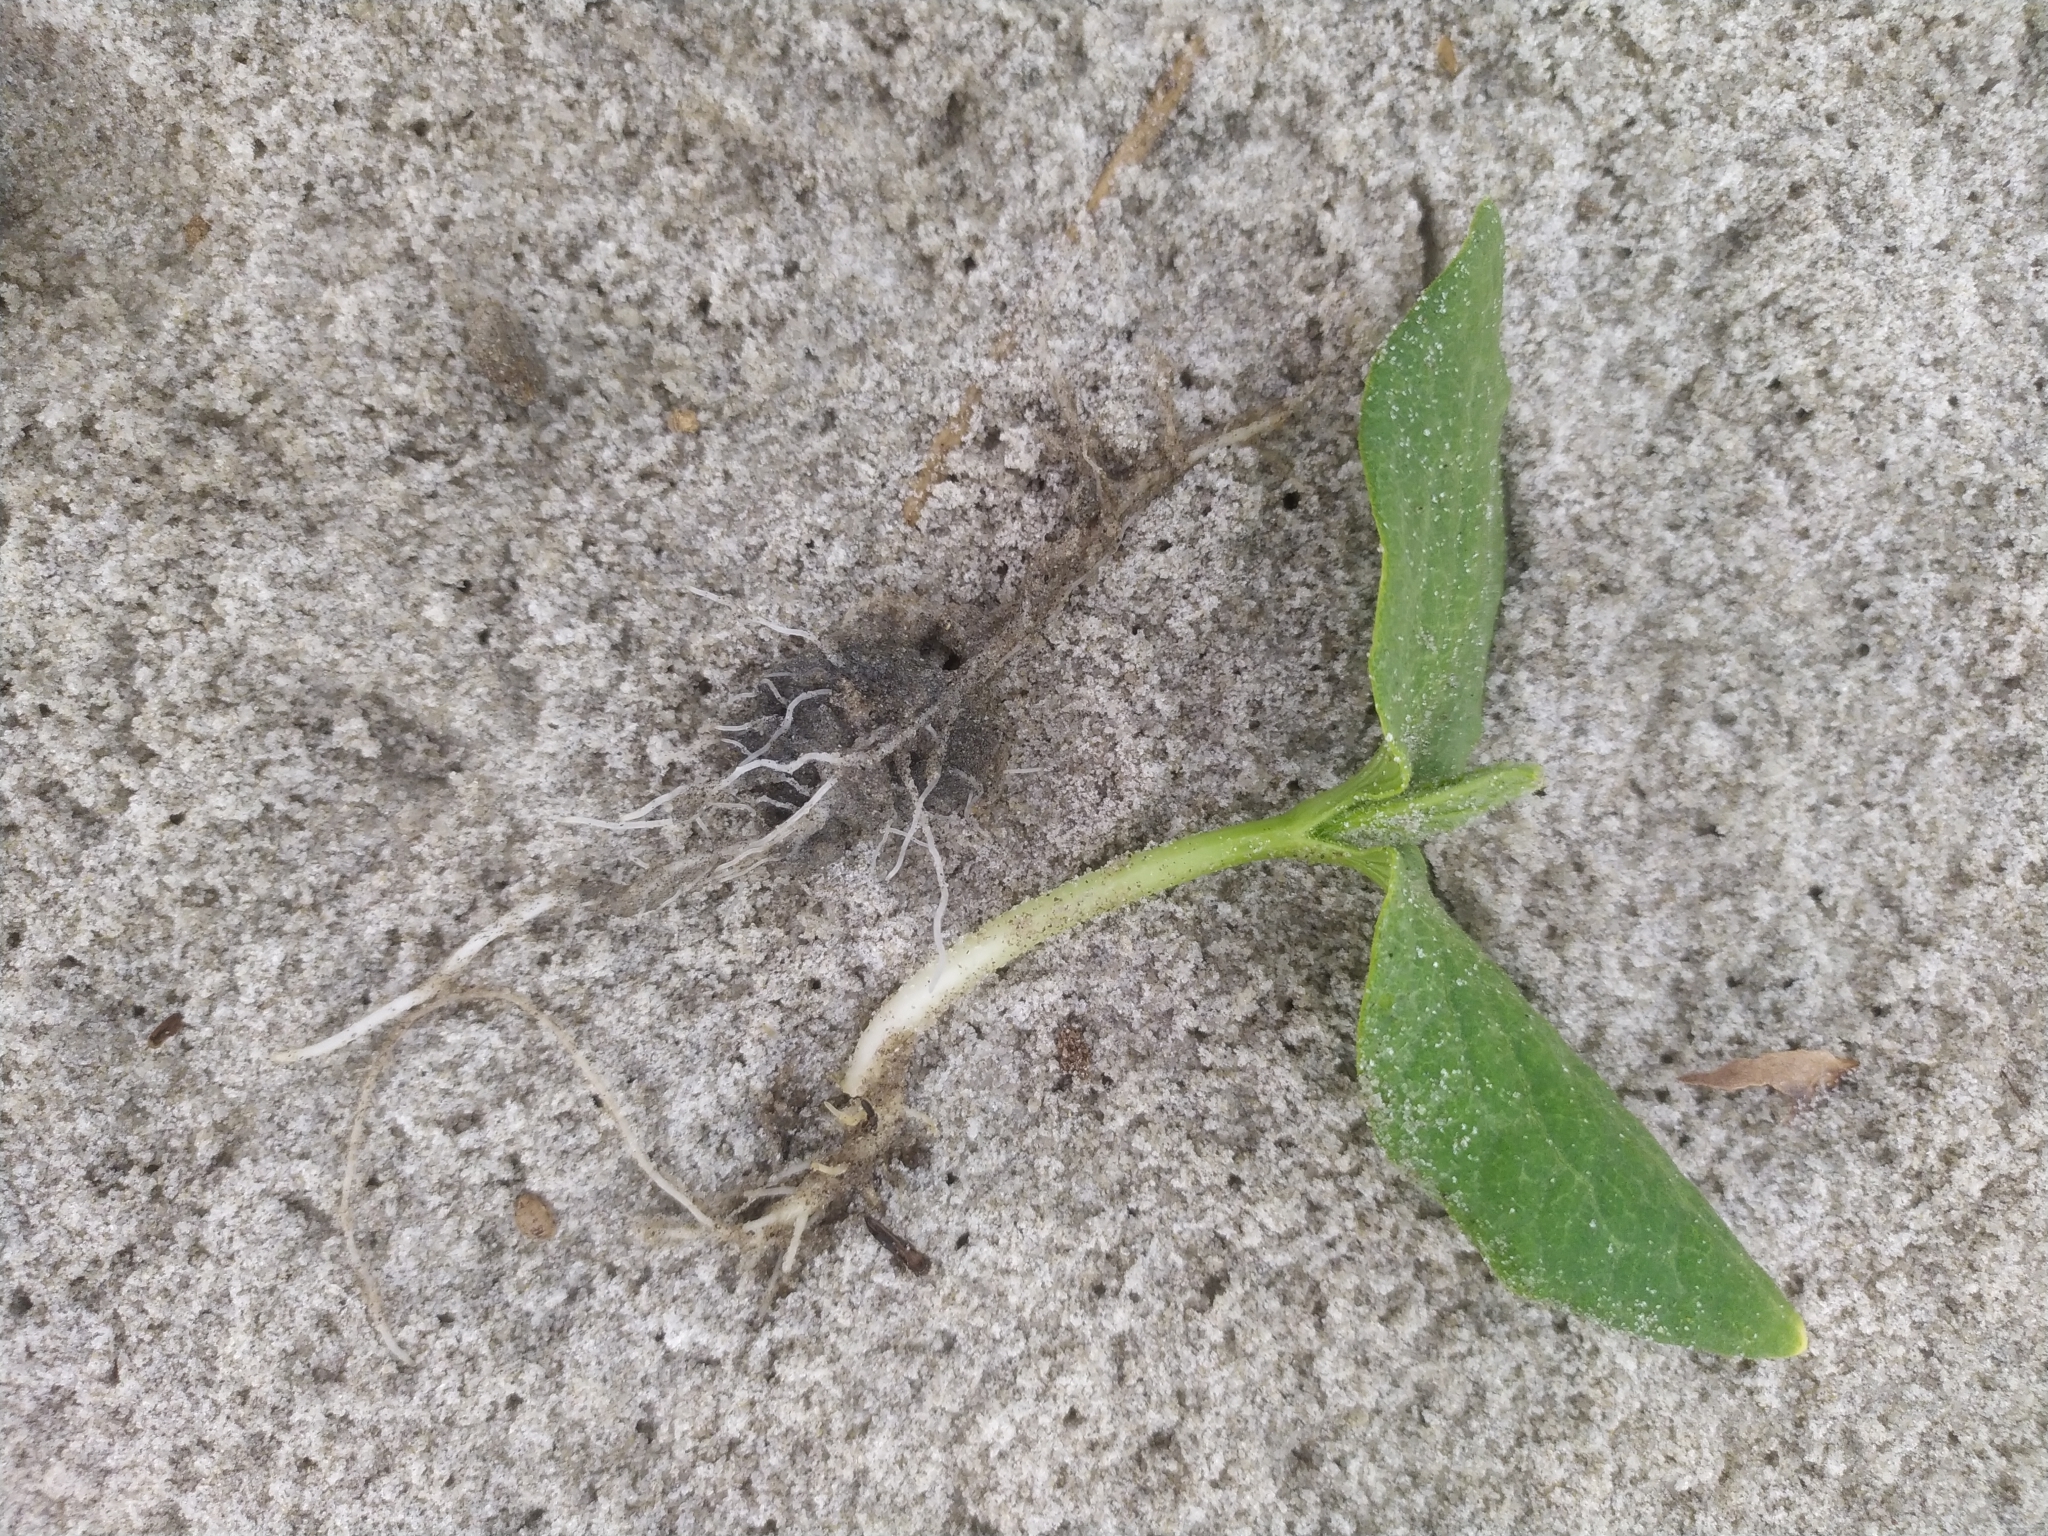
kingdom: Plantae
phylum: Tracheophyta
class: Magnoliopsida
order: Cucurbitales
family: Cucurbitaceae
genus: Sicyos
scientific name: Sicyos mawhai
